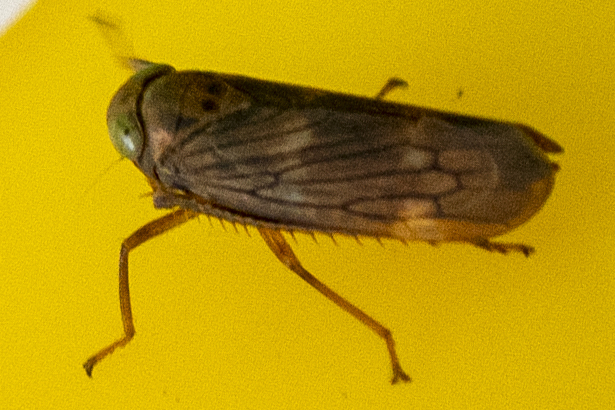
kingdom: Animalia
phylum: Arthropoda
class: Insecta
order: Hemiptera
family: Cicadellidae
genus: Jikradia
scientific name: Jikradia olitoria
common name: Coppery leafhopper
